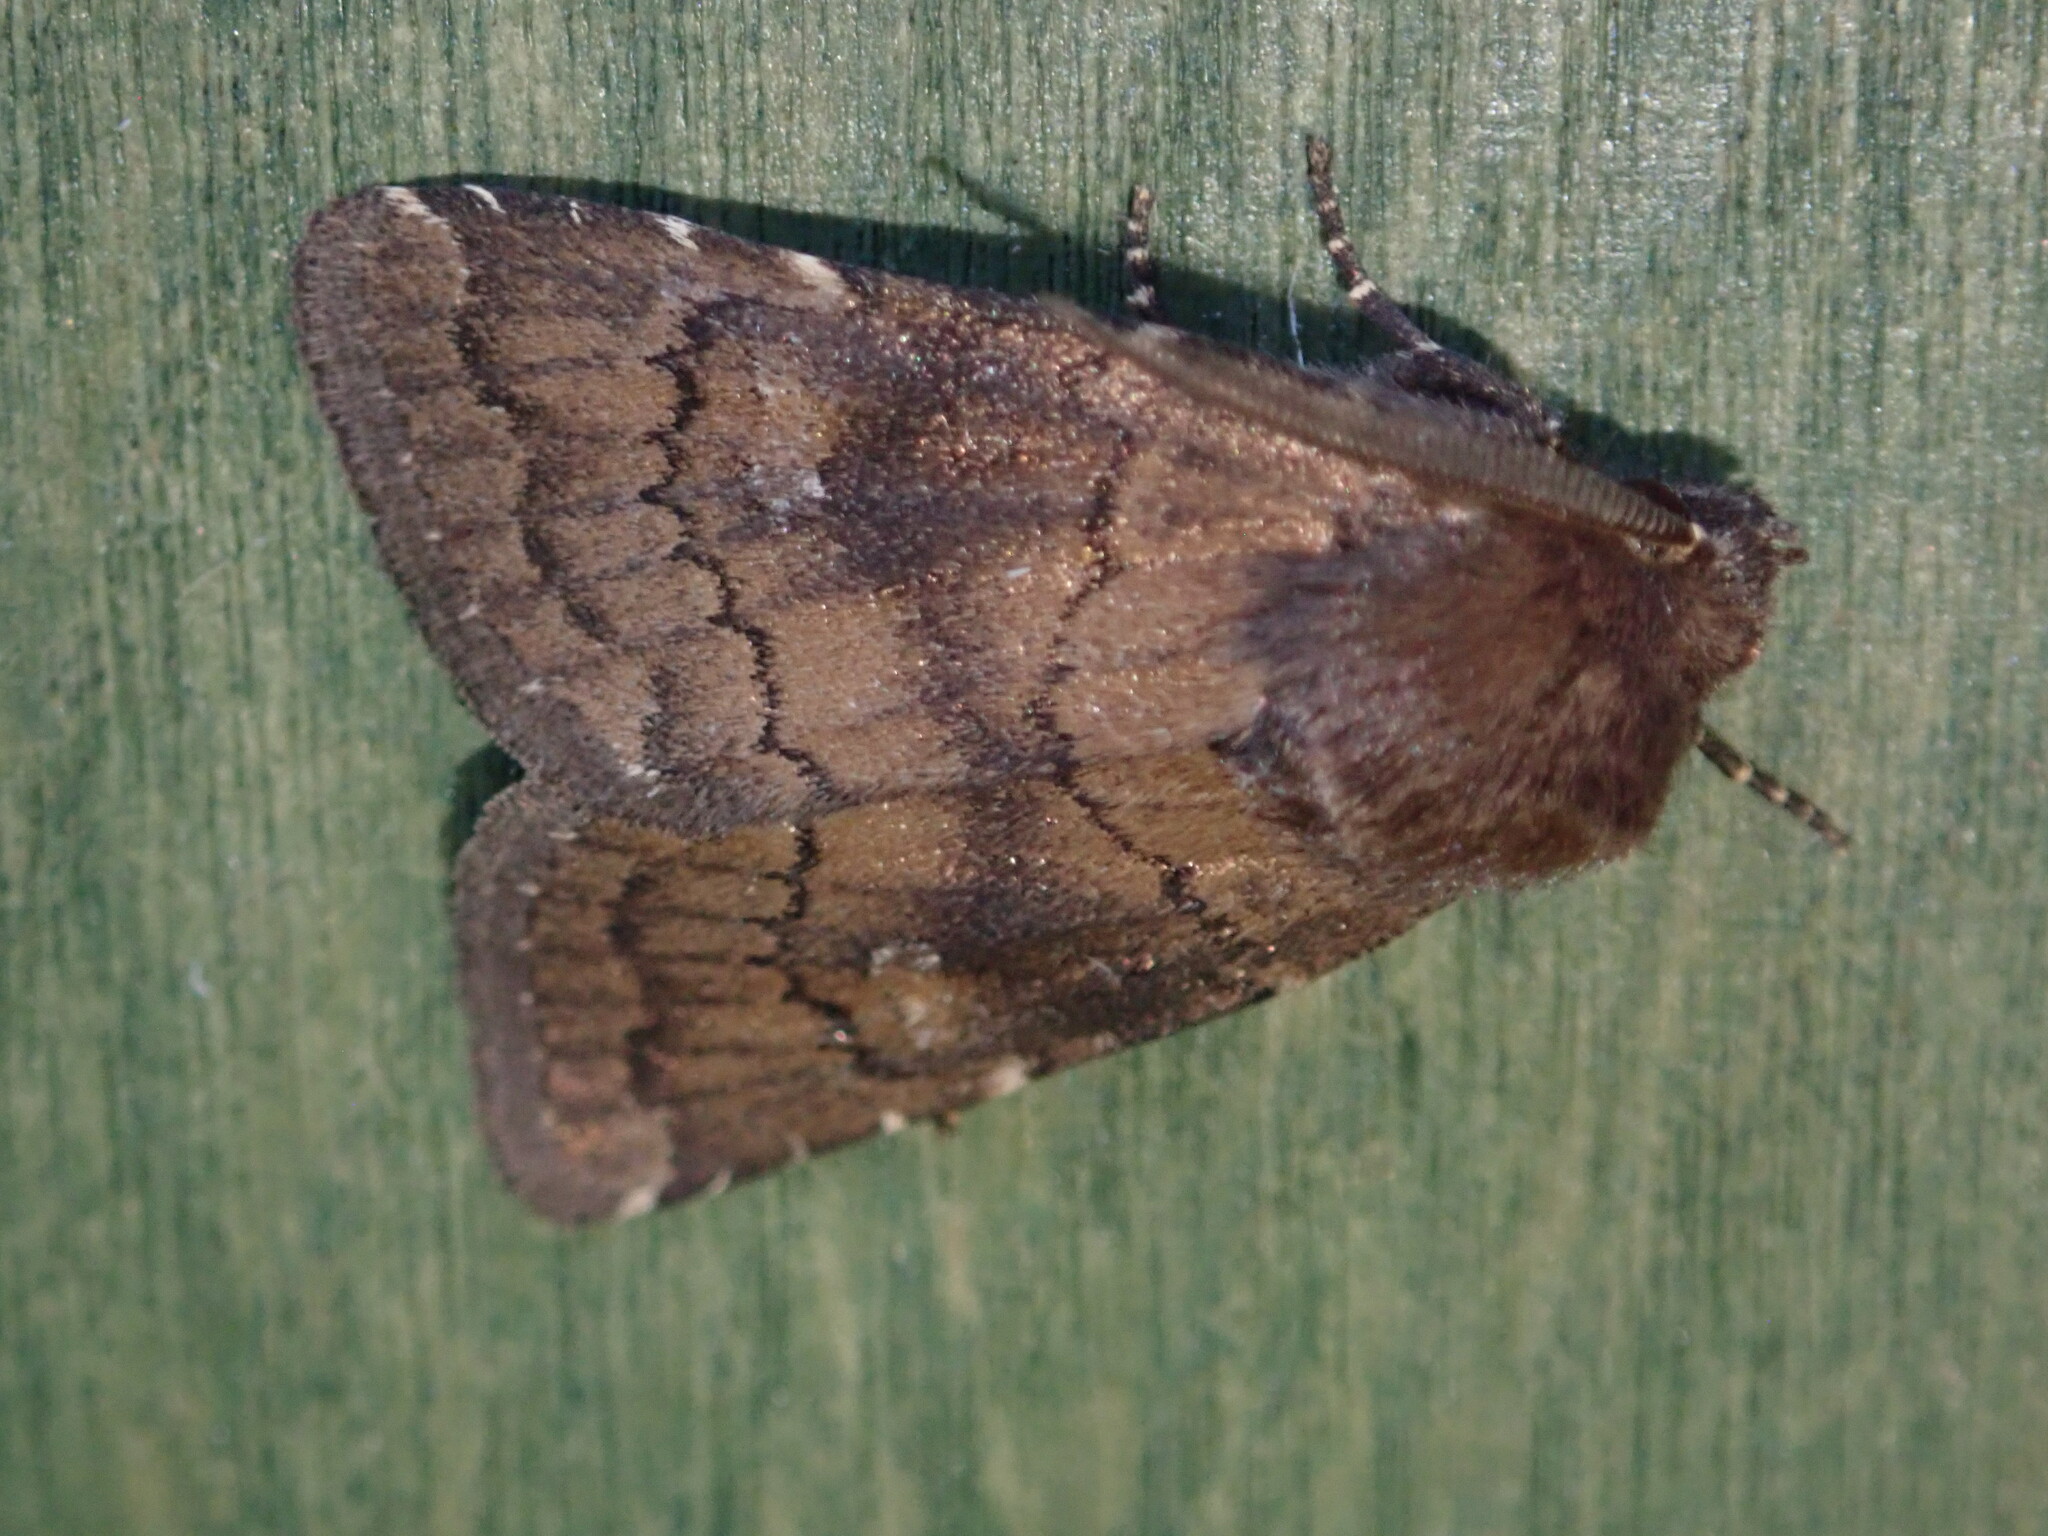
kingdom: Animalia
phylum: Arthropoda
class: Insecta
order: Lepidoptera
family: Noctuidae
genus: Charanyca
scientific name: Charanyca ferruginea
